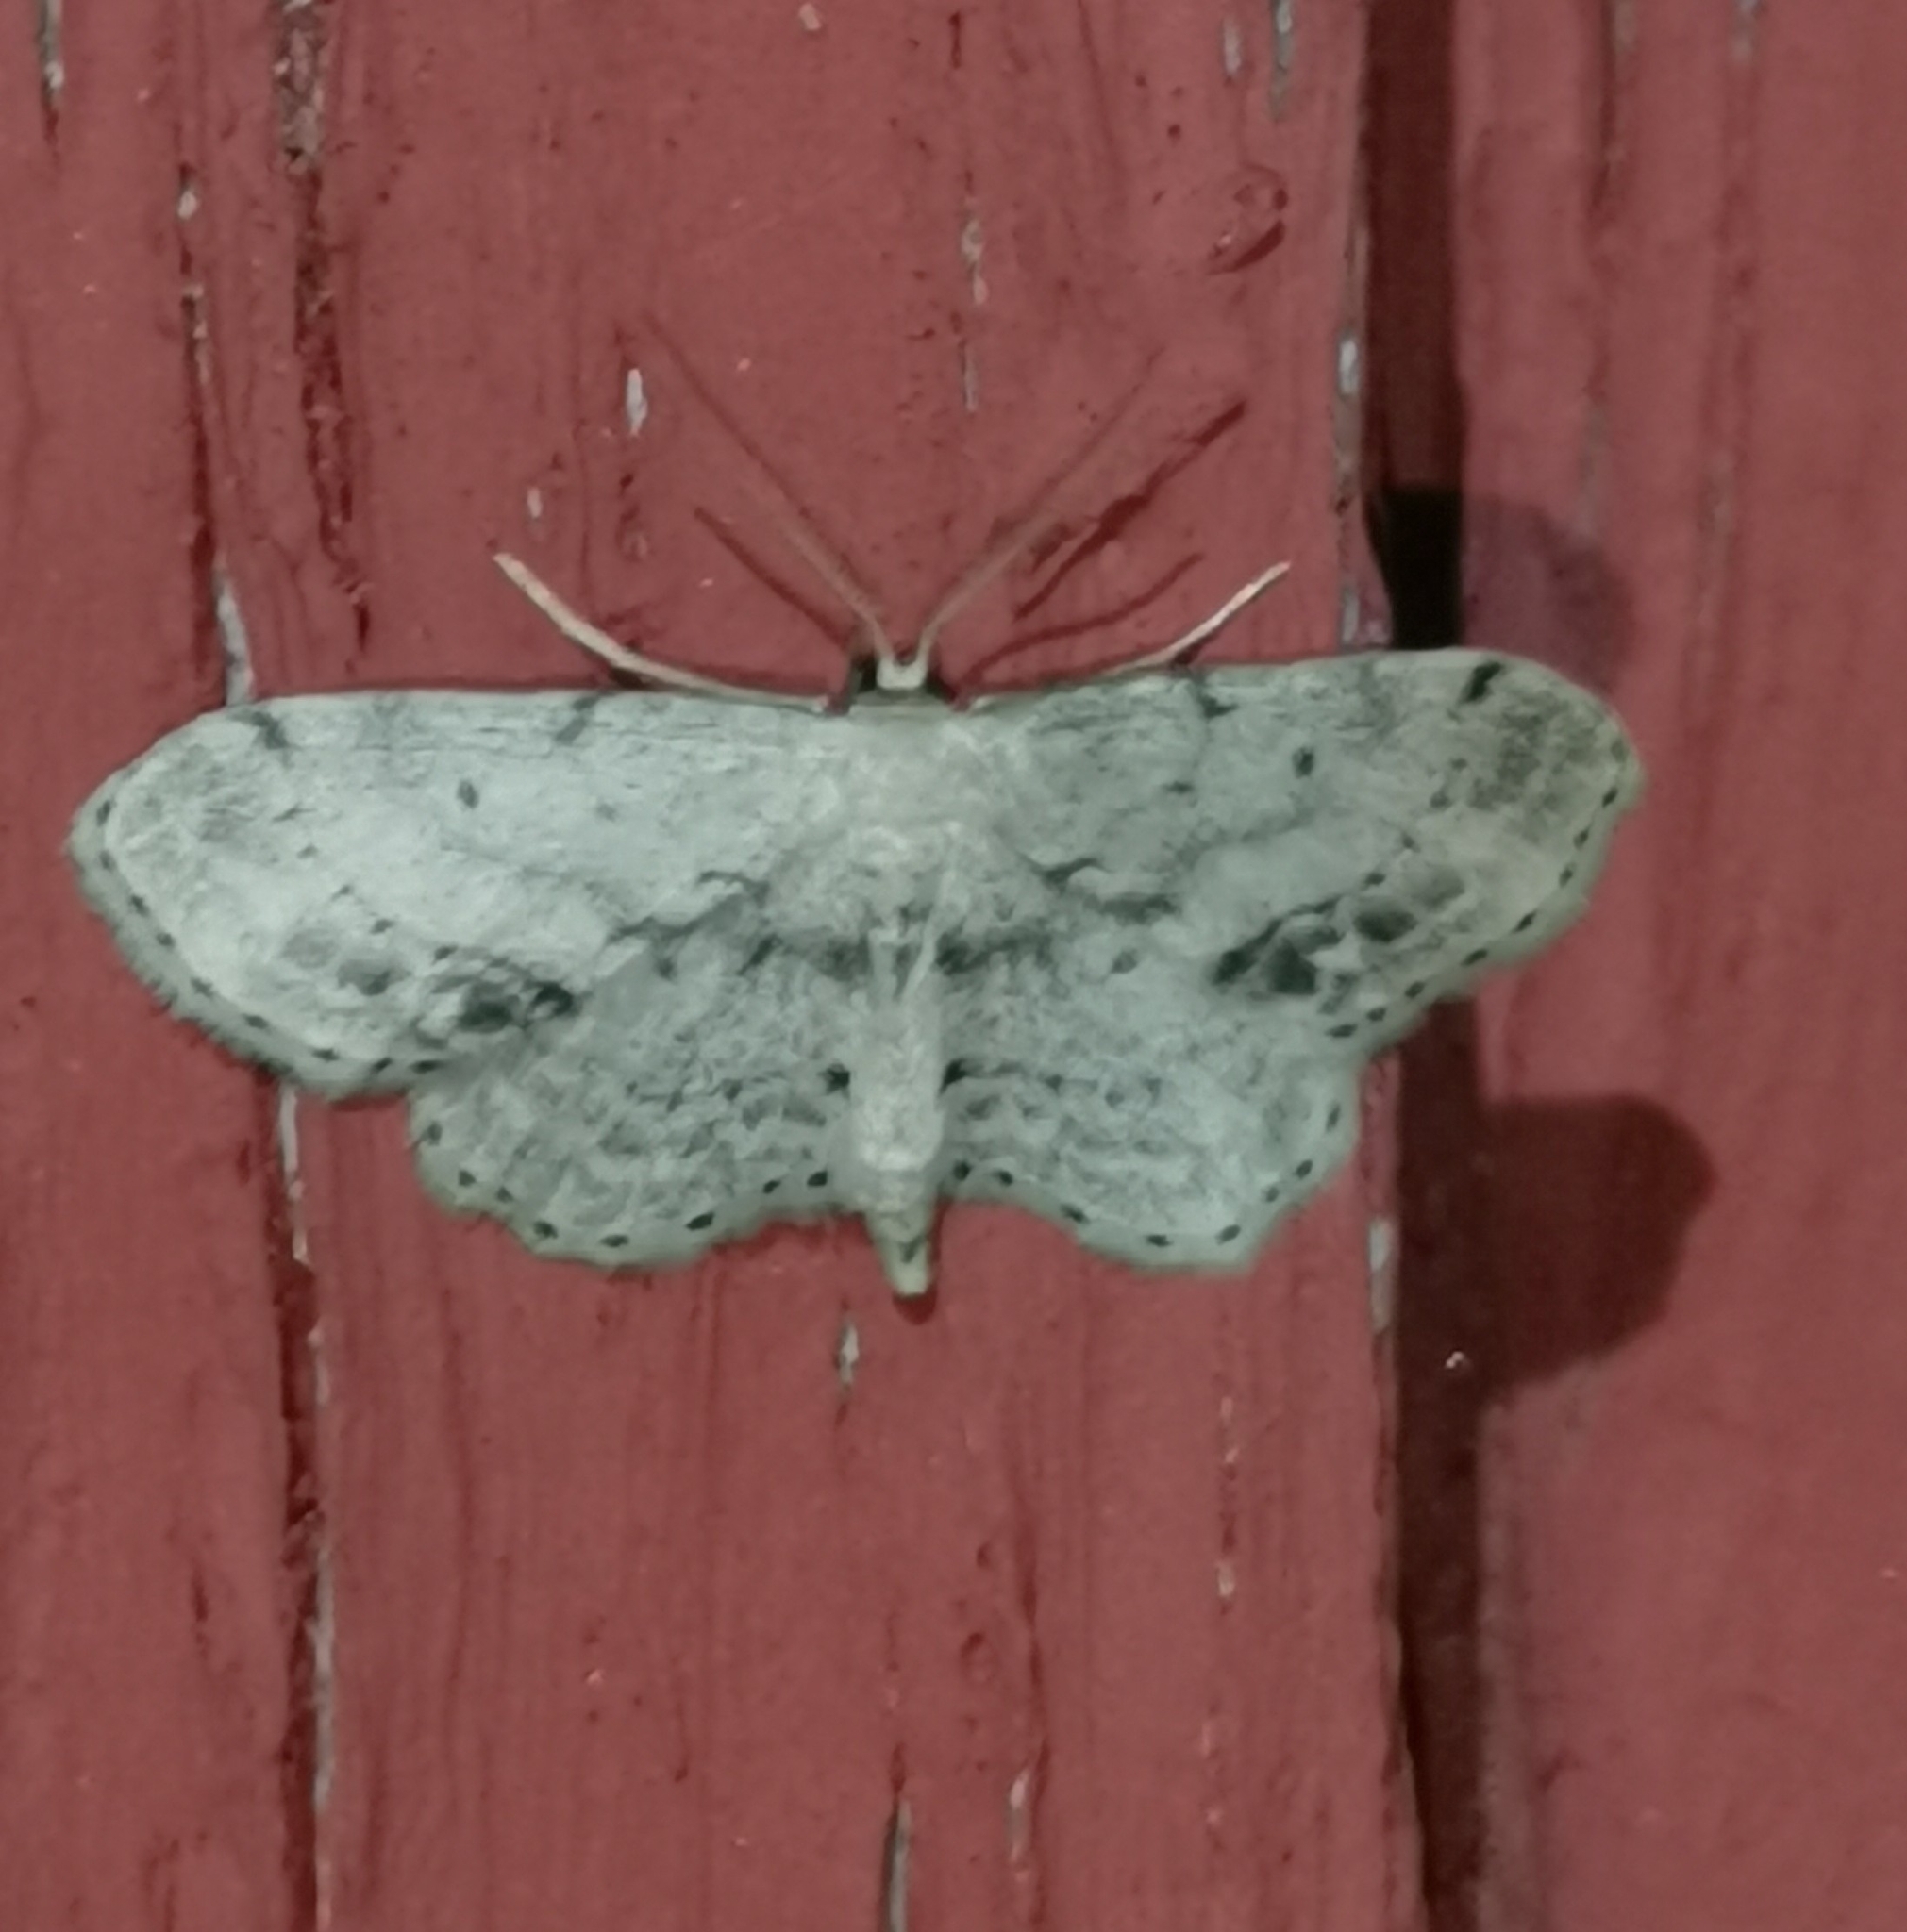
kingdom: Animalia
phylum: Arthropoda
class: Insecta
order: Lepidoptera
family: Geometridae
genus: Idaea
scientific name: Idaea dimidiata
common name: Single-dotted wave
